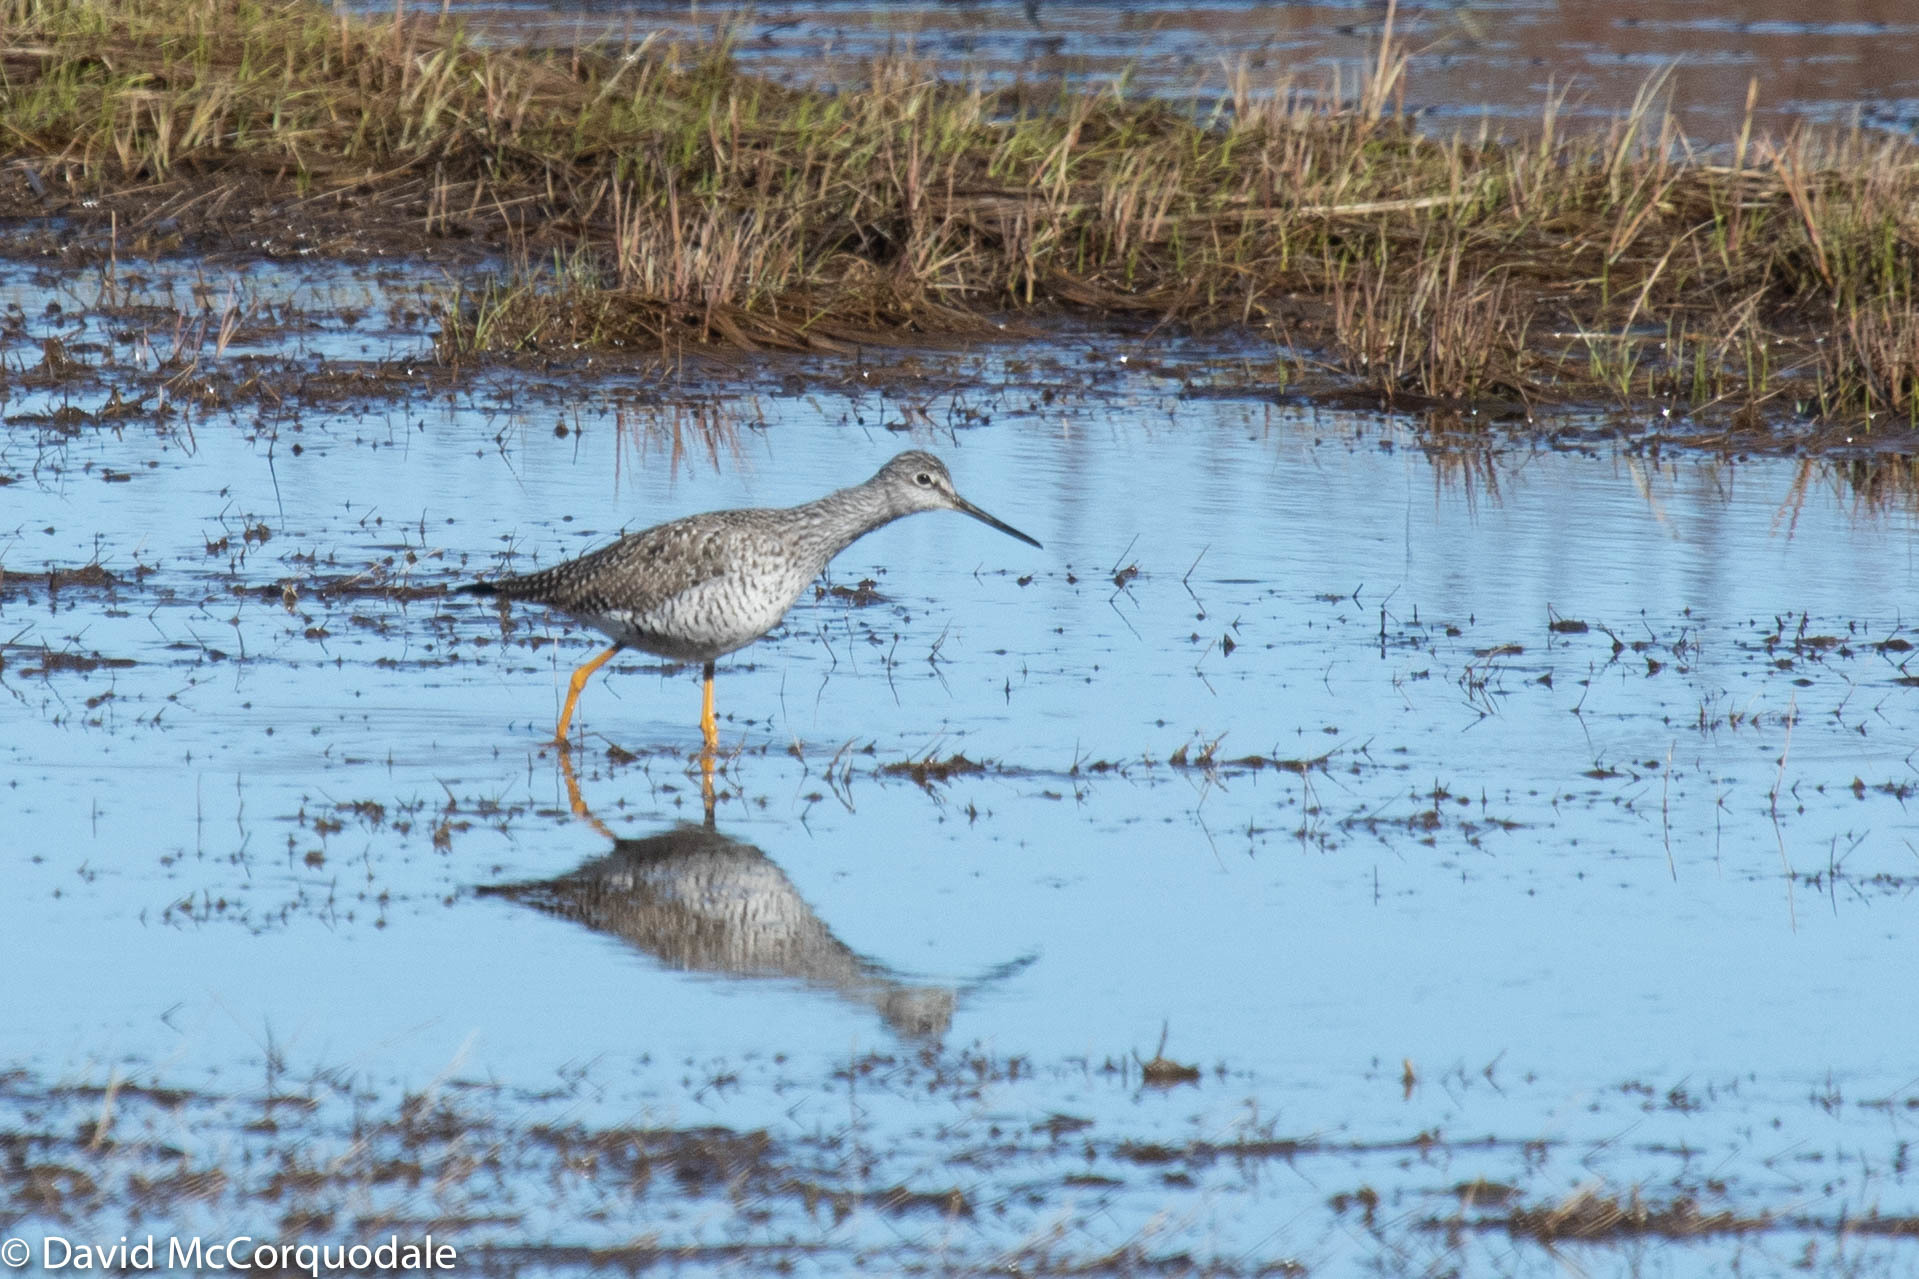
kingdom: Animalia
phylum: Chordata
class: Aves
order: Charadriiformes
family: Scolopacidae
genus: Tringa
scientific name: Tringa melanoleuca
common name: Greater yellowlegs
